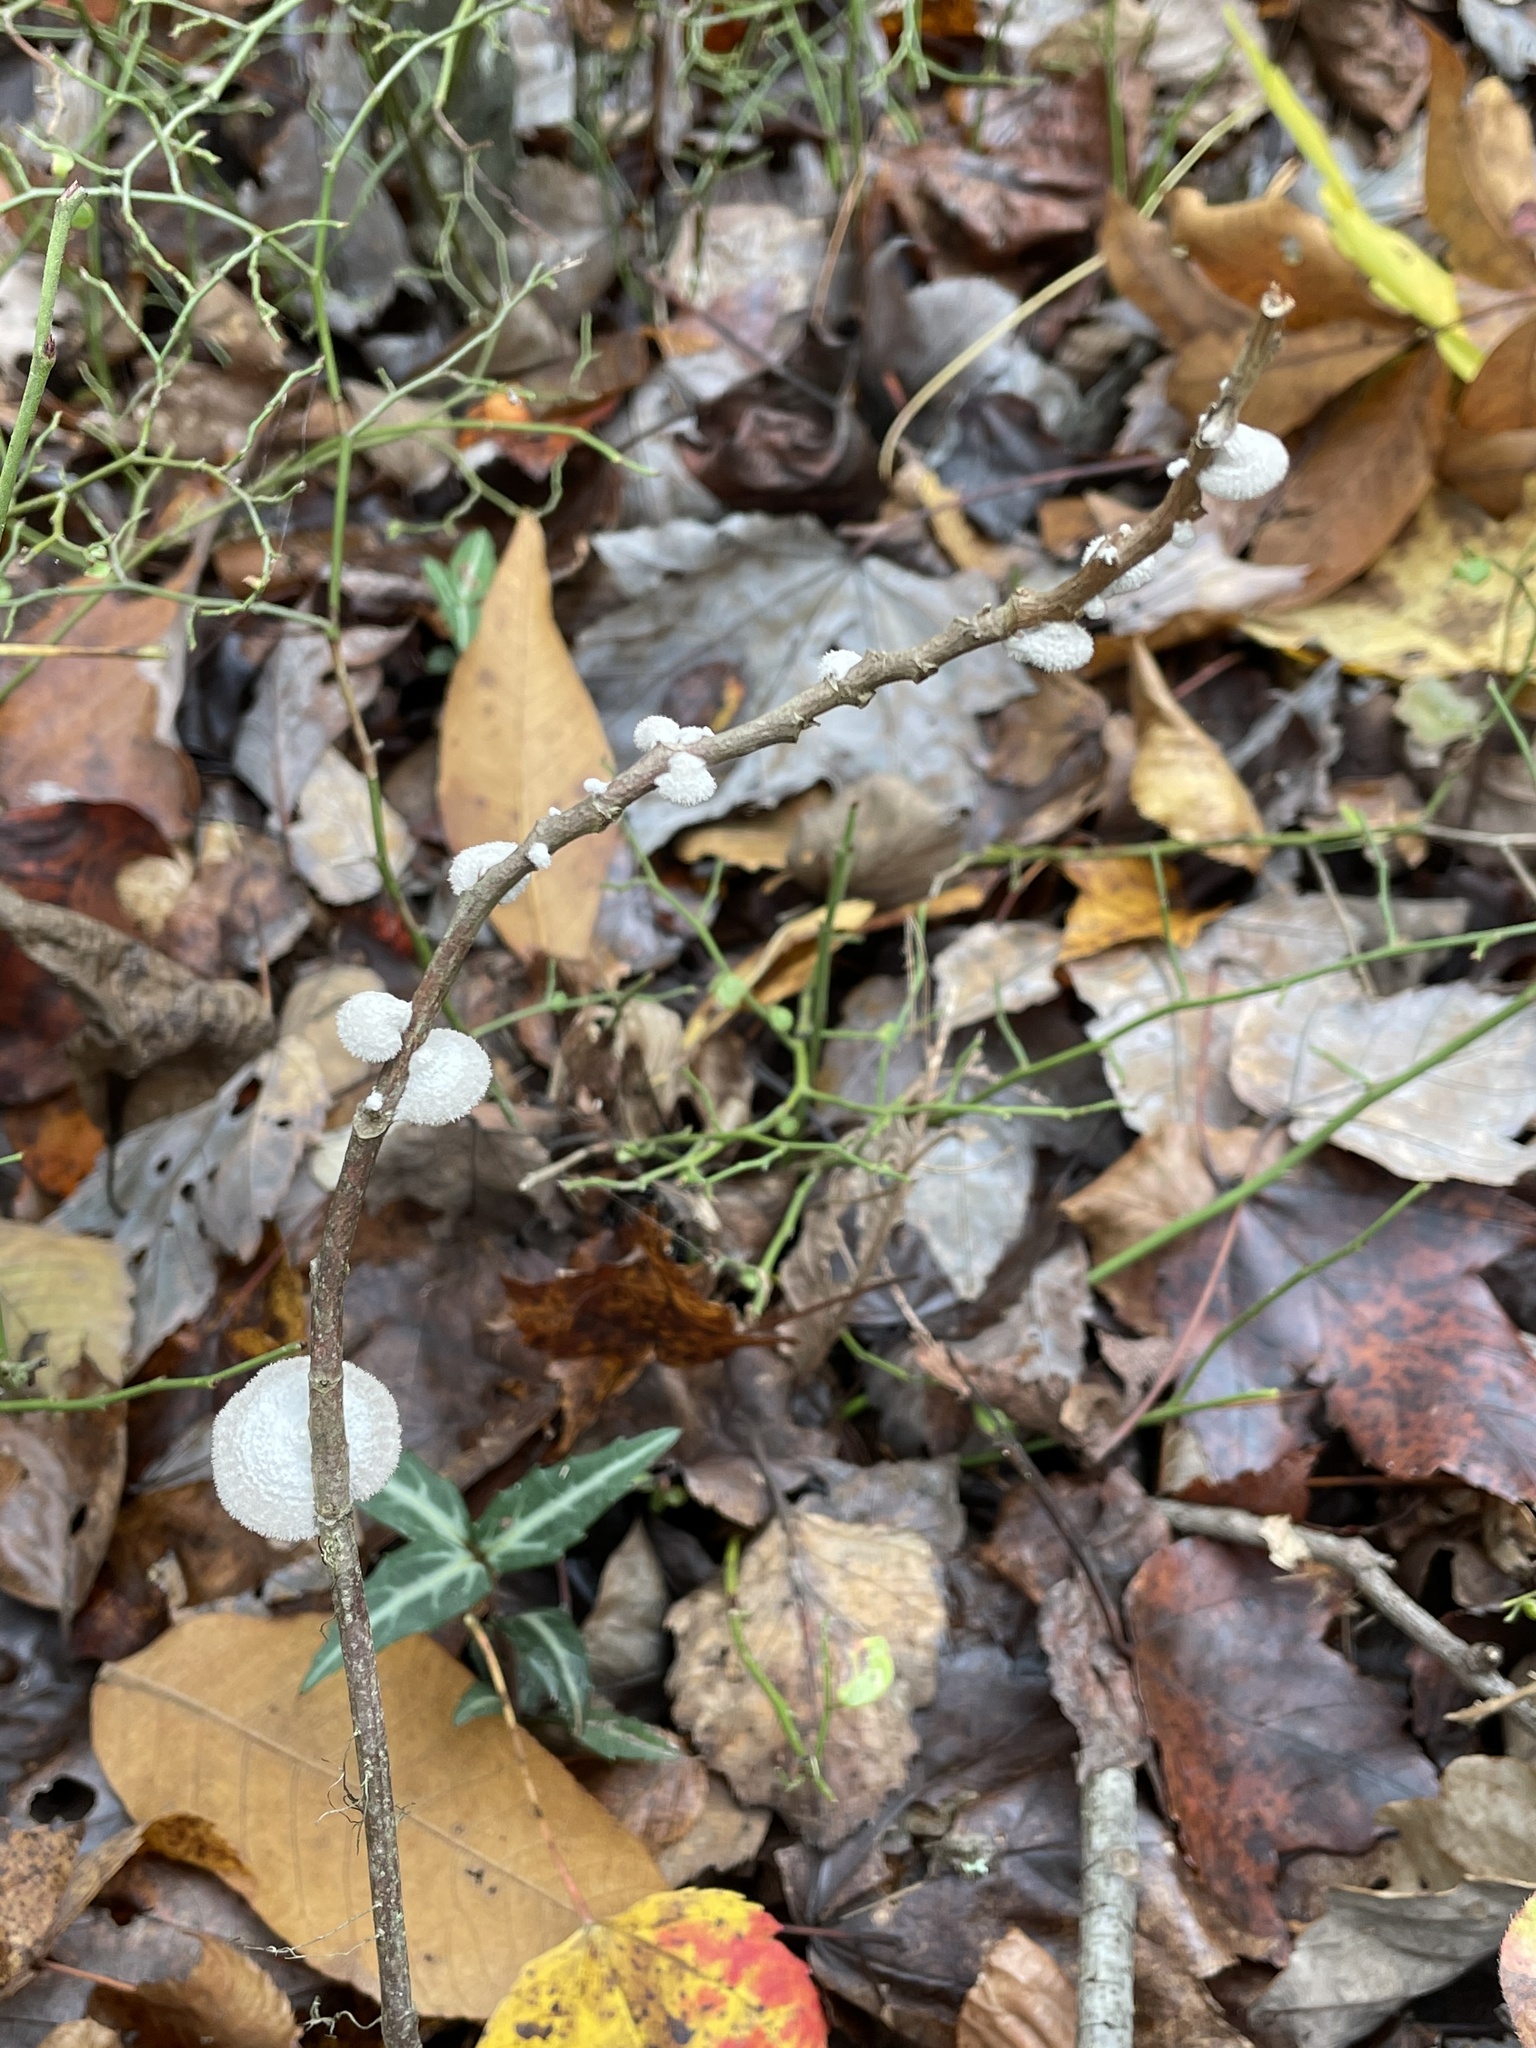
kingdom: Fungi
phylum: Basidiomycota
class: Agaricomycetes
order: Agaricales
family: Schizophyllaceae
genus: Schizophyllum
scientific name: Schizophyllum commune
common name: Common porecrust
